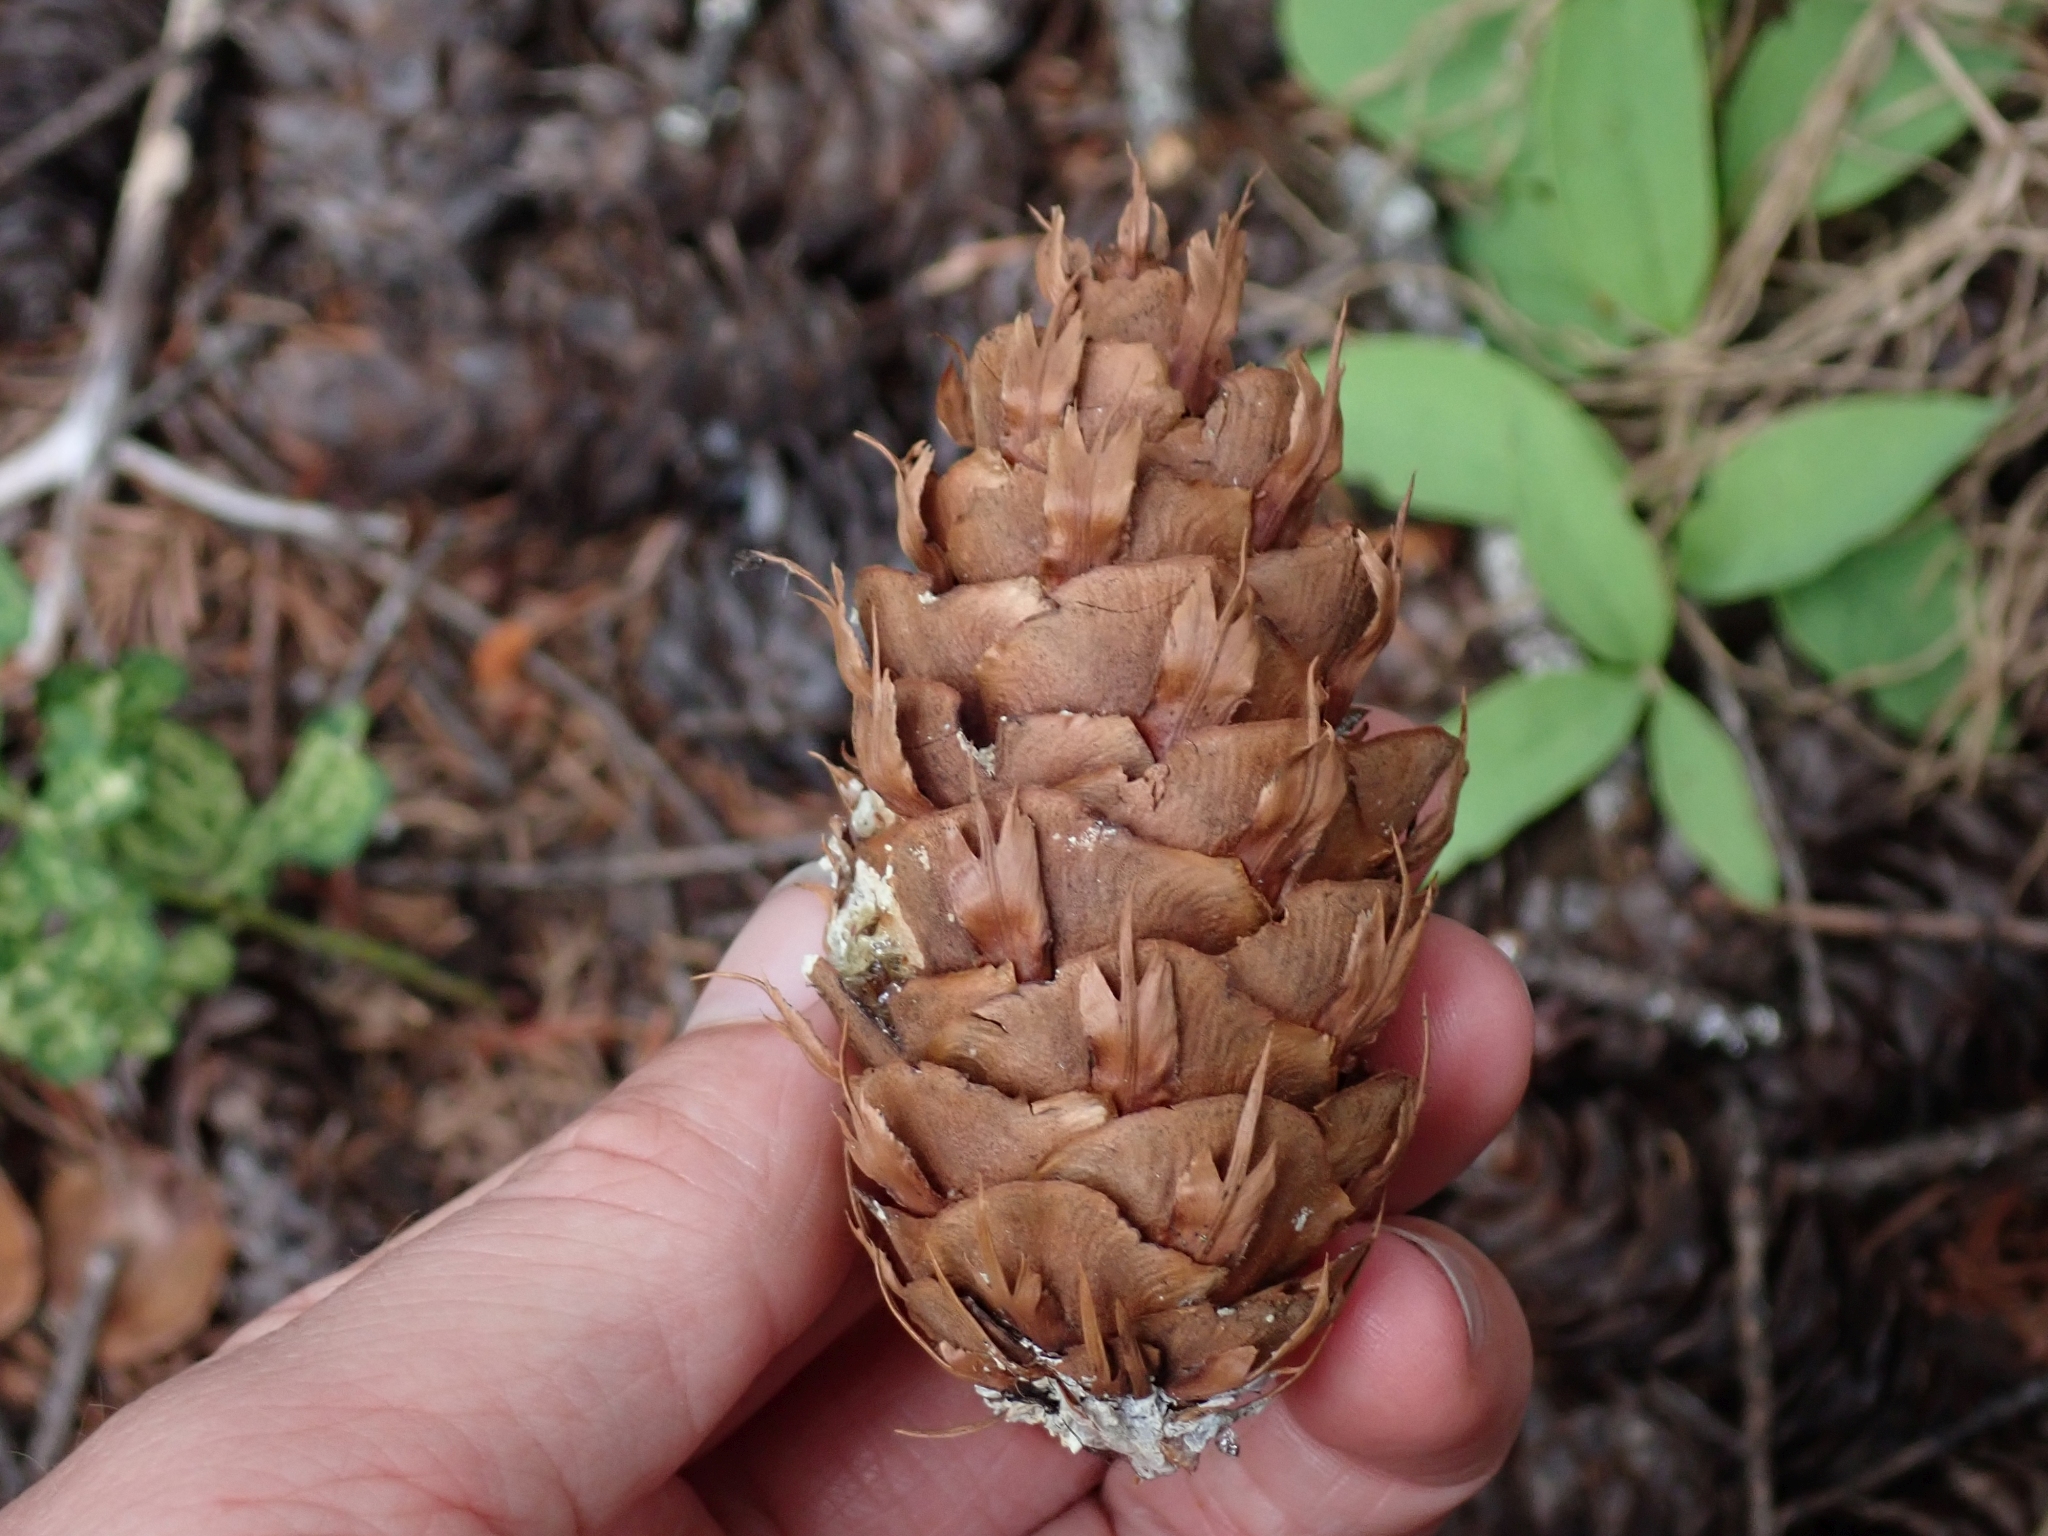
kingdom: Plantae
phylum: Tracheophyta
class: Pinopsida
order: Pinales
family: Pinaceae
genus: Pseudotsuga
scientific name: Pseudotsuga menziesii
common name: Douglas fir
